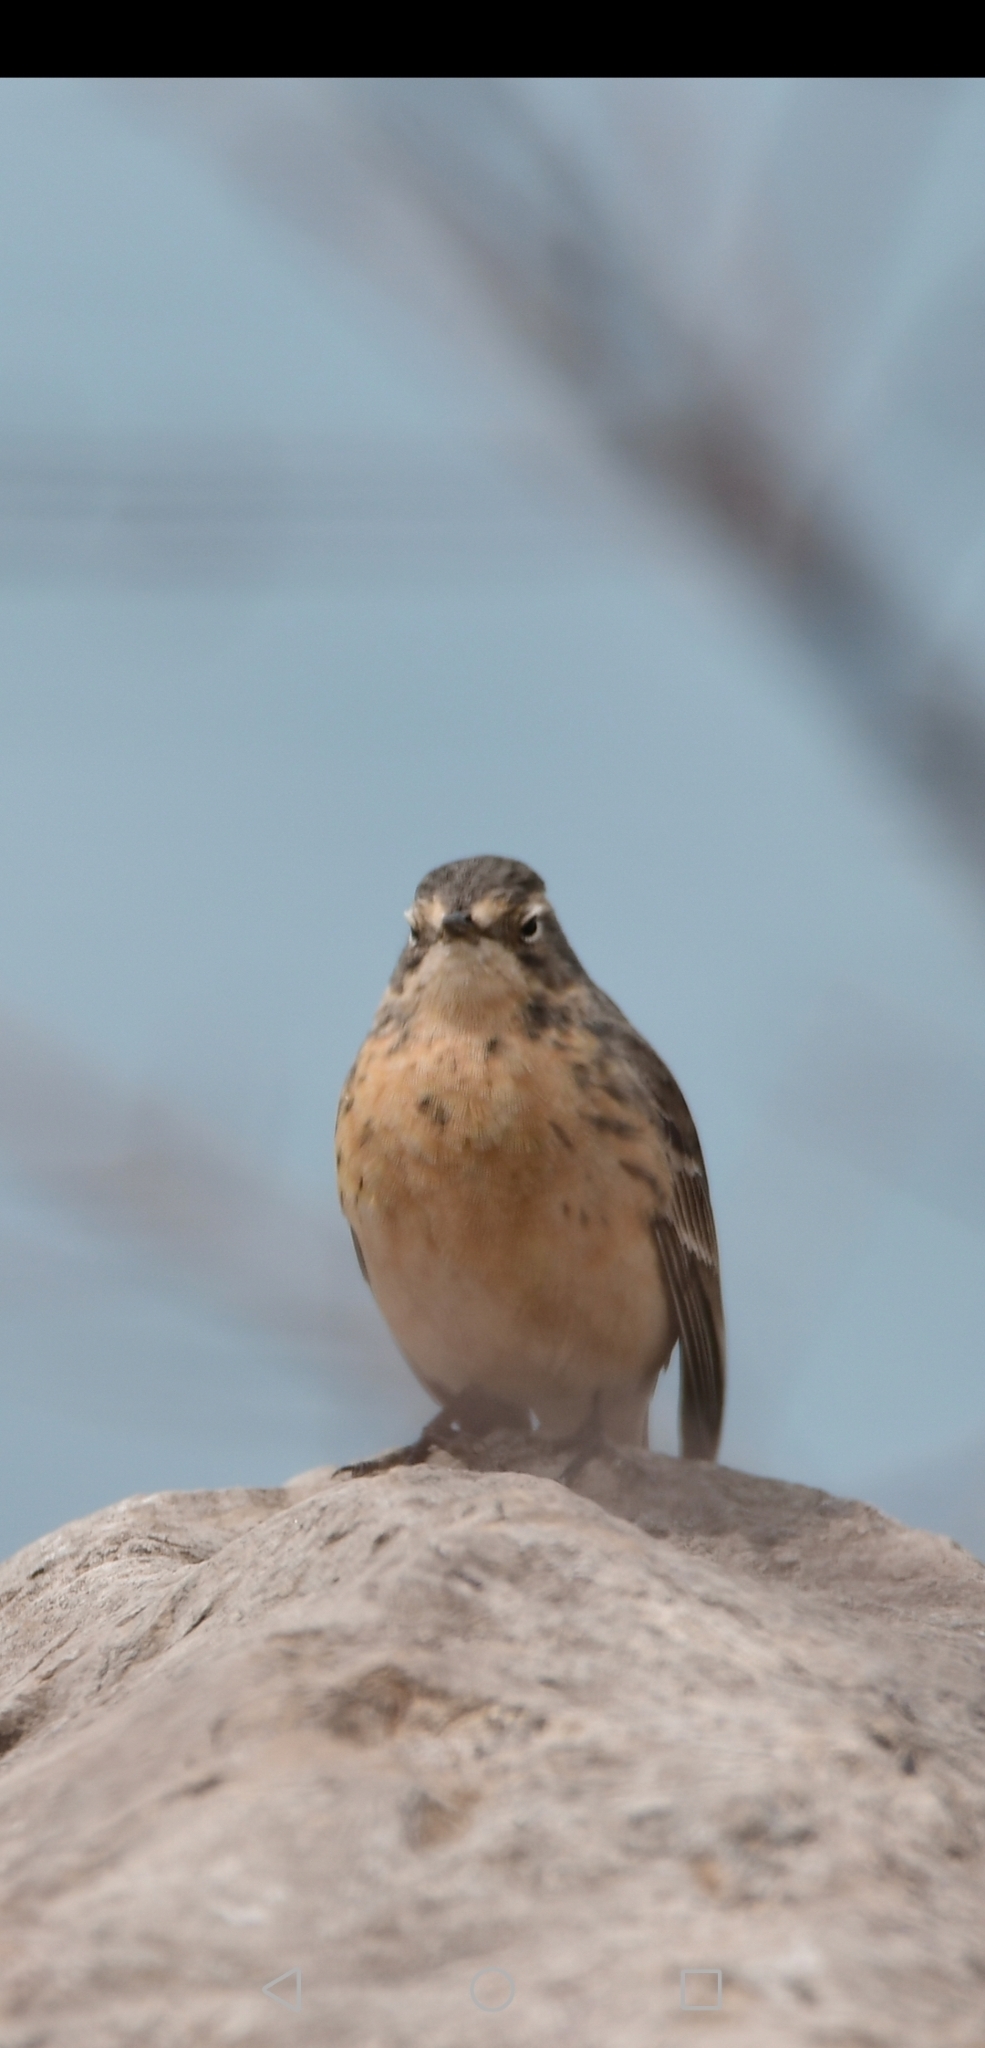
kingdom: Animalia
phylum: Chordata
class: Aves
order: Passeriformes
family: Motacillidae
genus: Anthus
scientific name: Anthus rubescens
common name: Buff-bellied pipit
